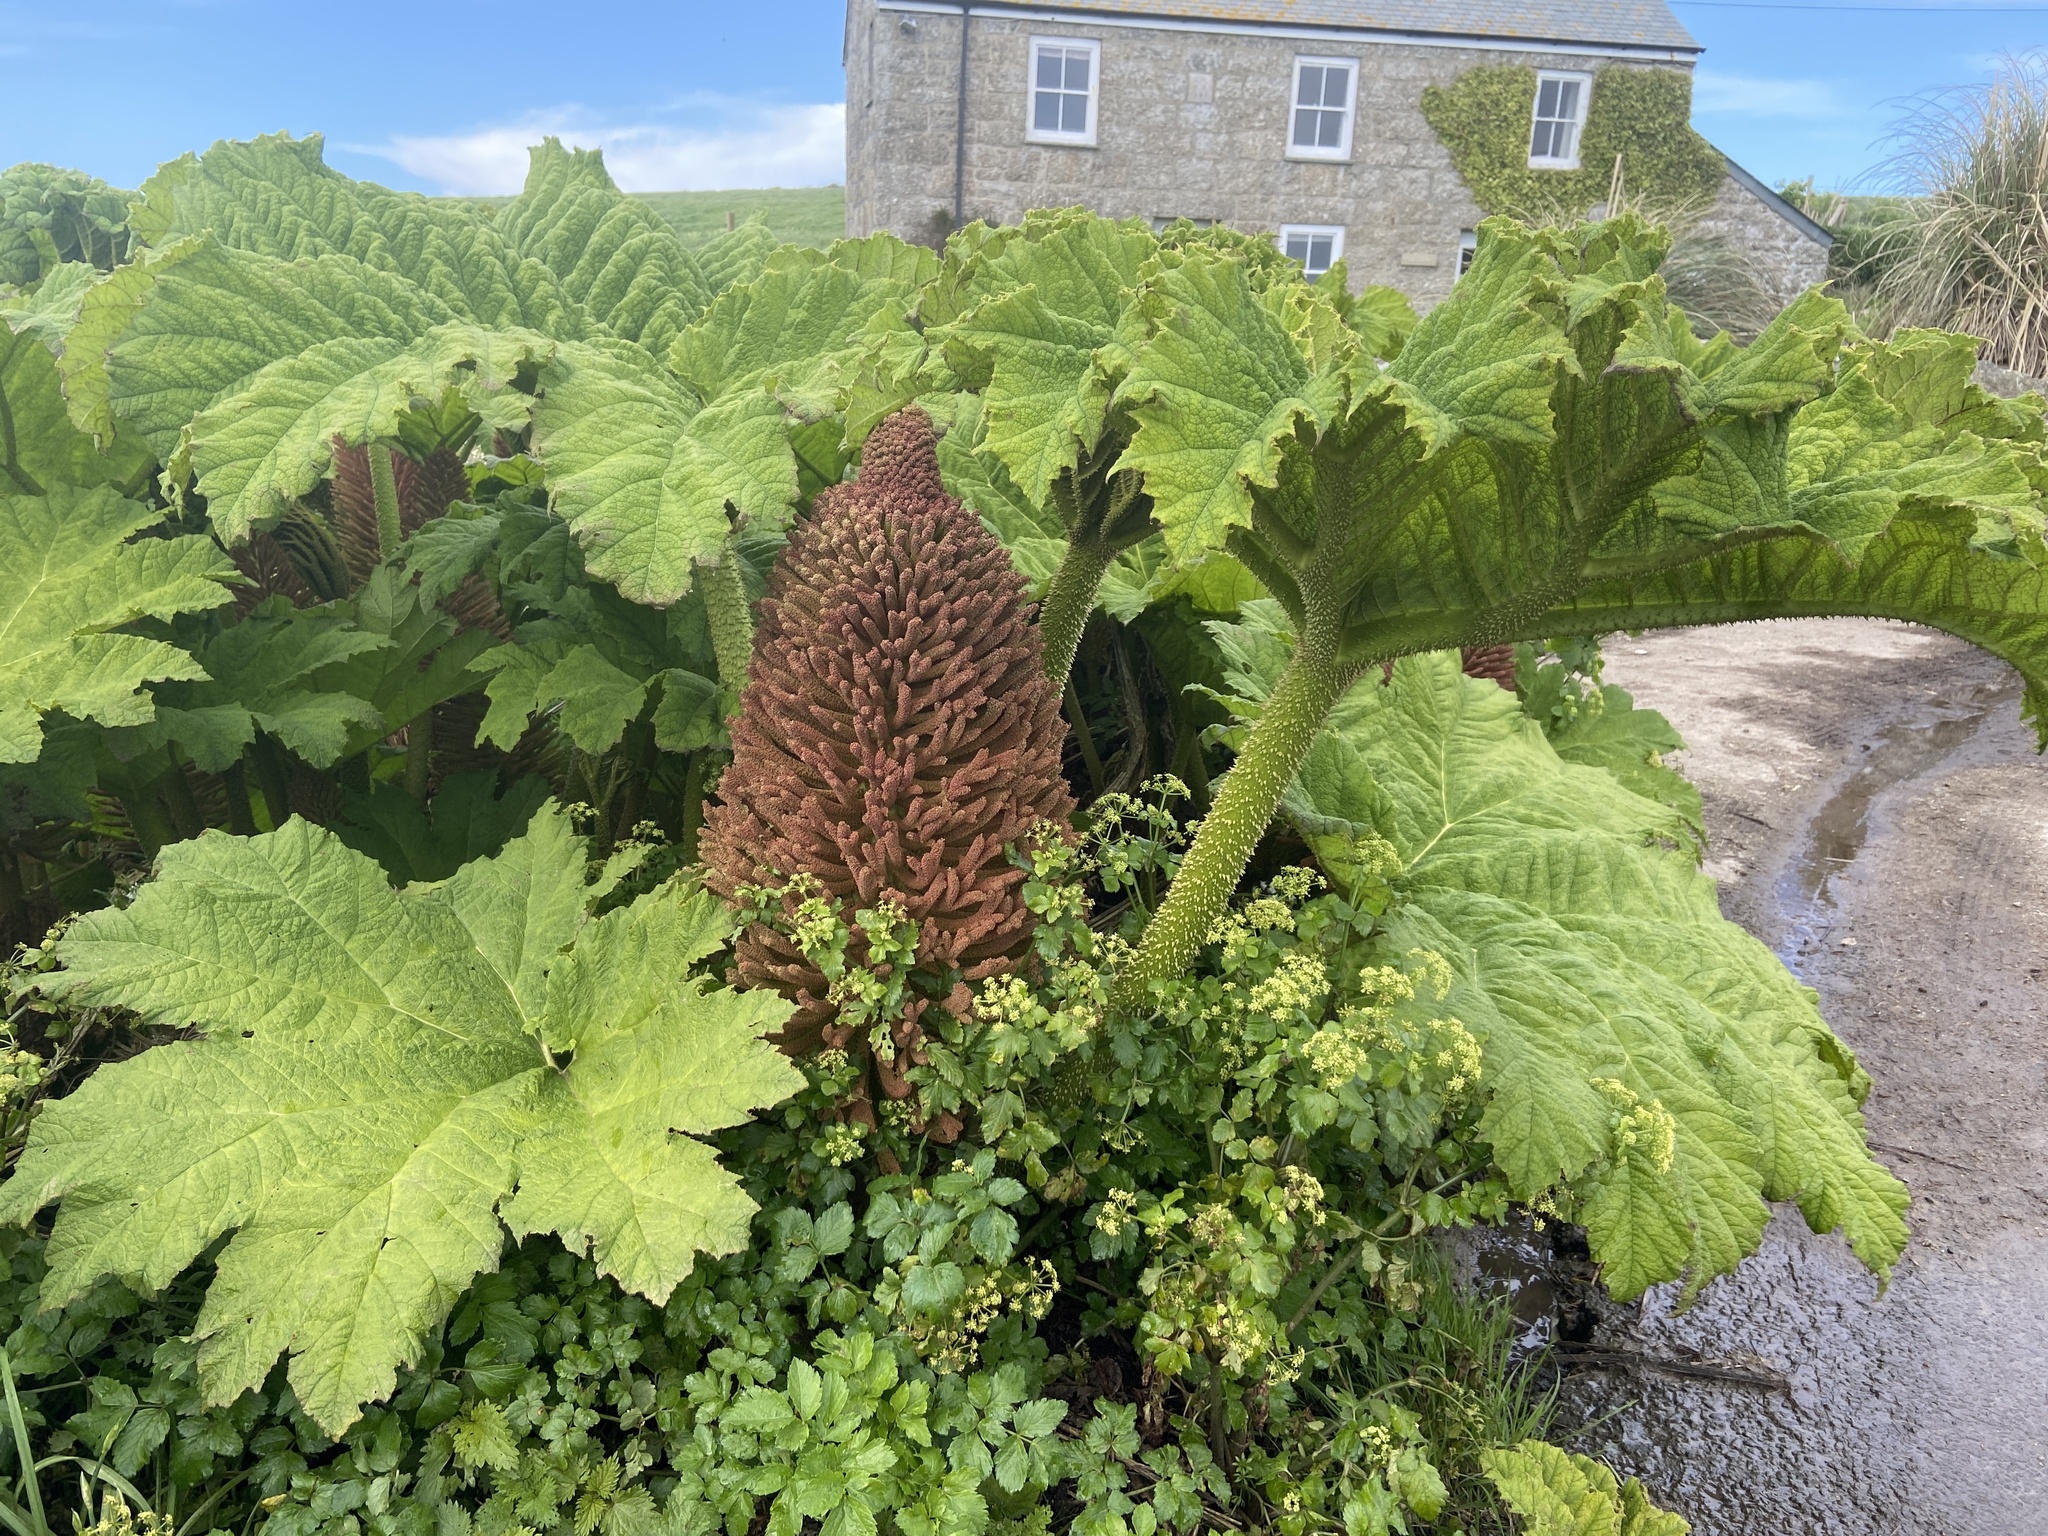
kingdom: Plantae
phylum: Tracheophyta
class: Magnoliopsida
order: Gunnerales
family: Gunneraceae
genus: Gunnera
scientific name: Gunnera manicata
